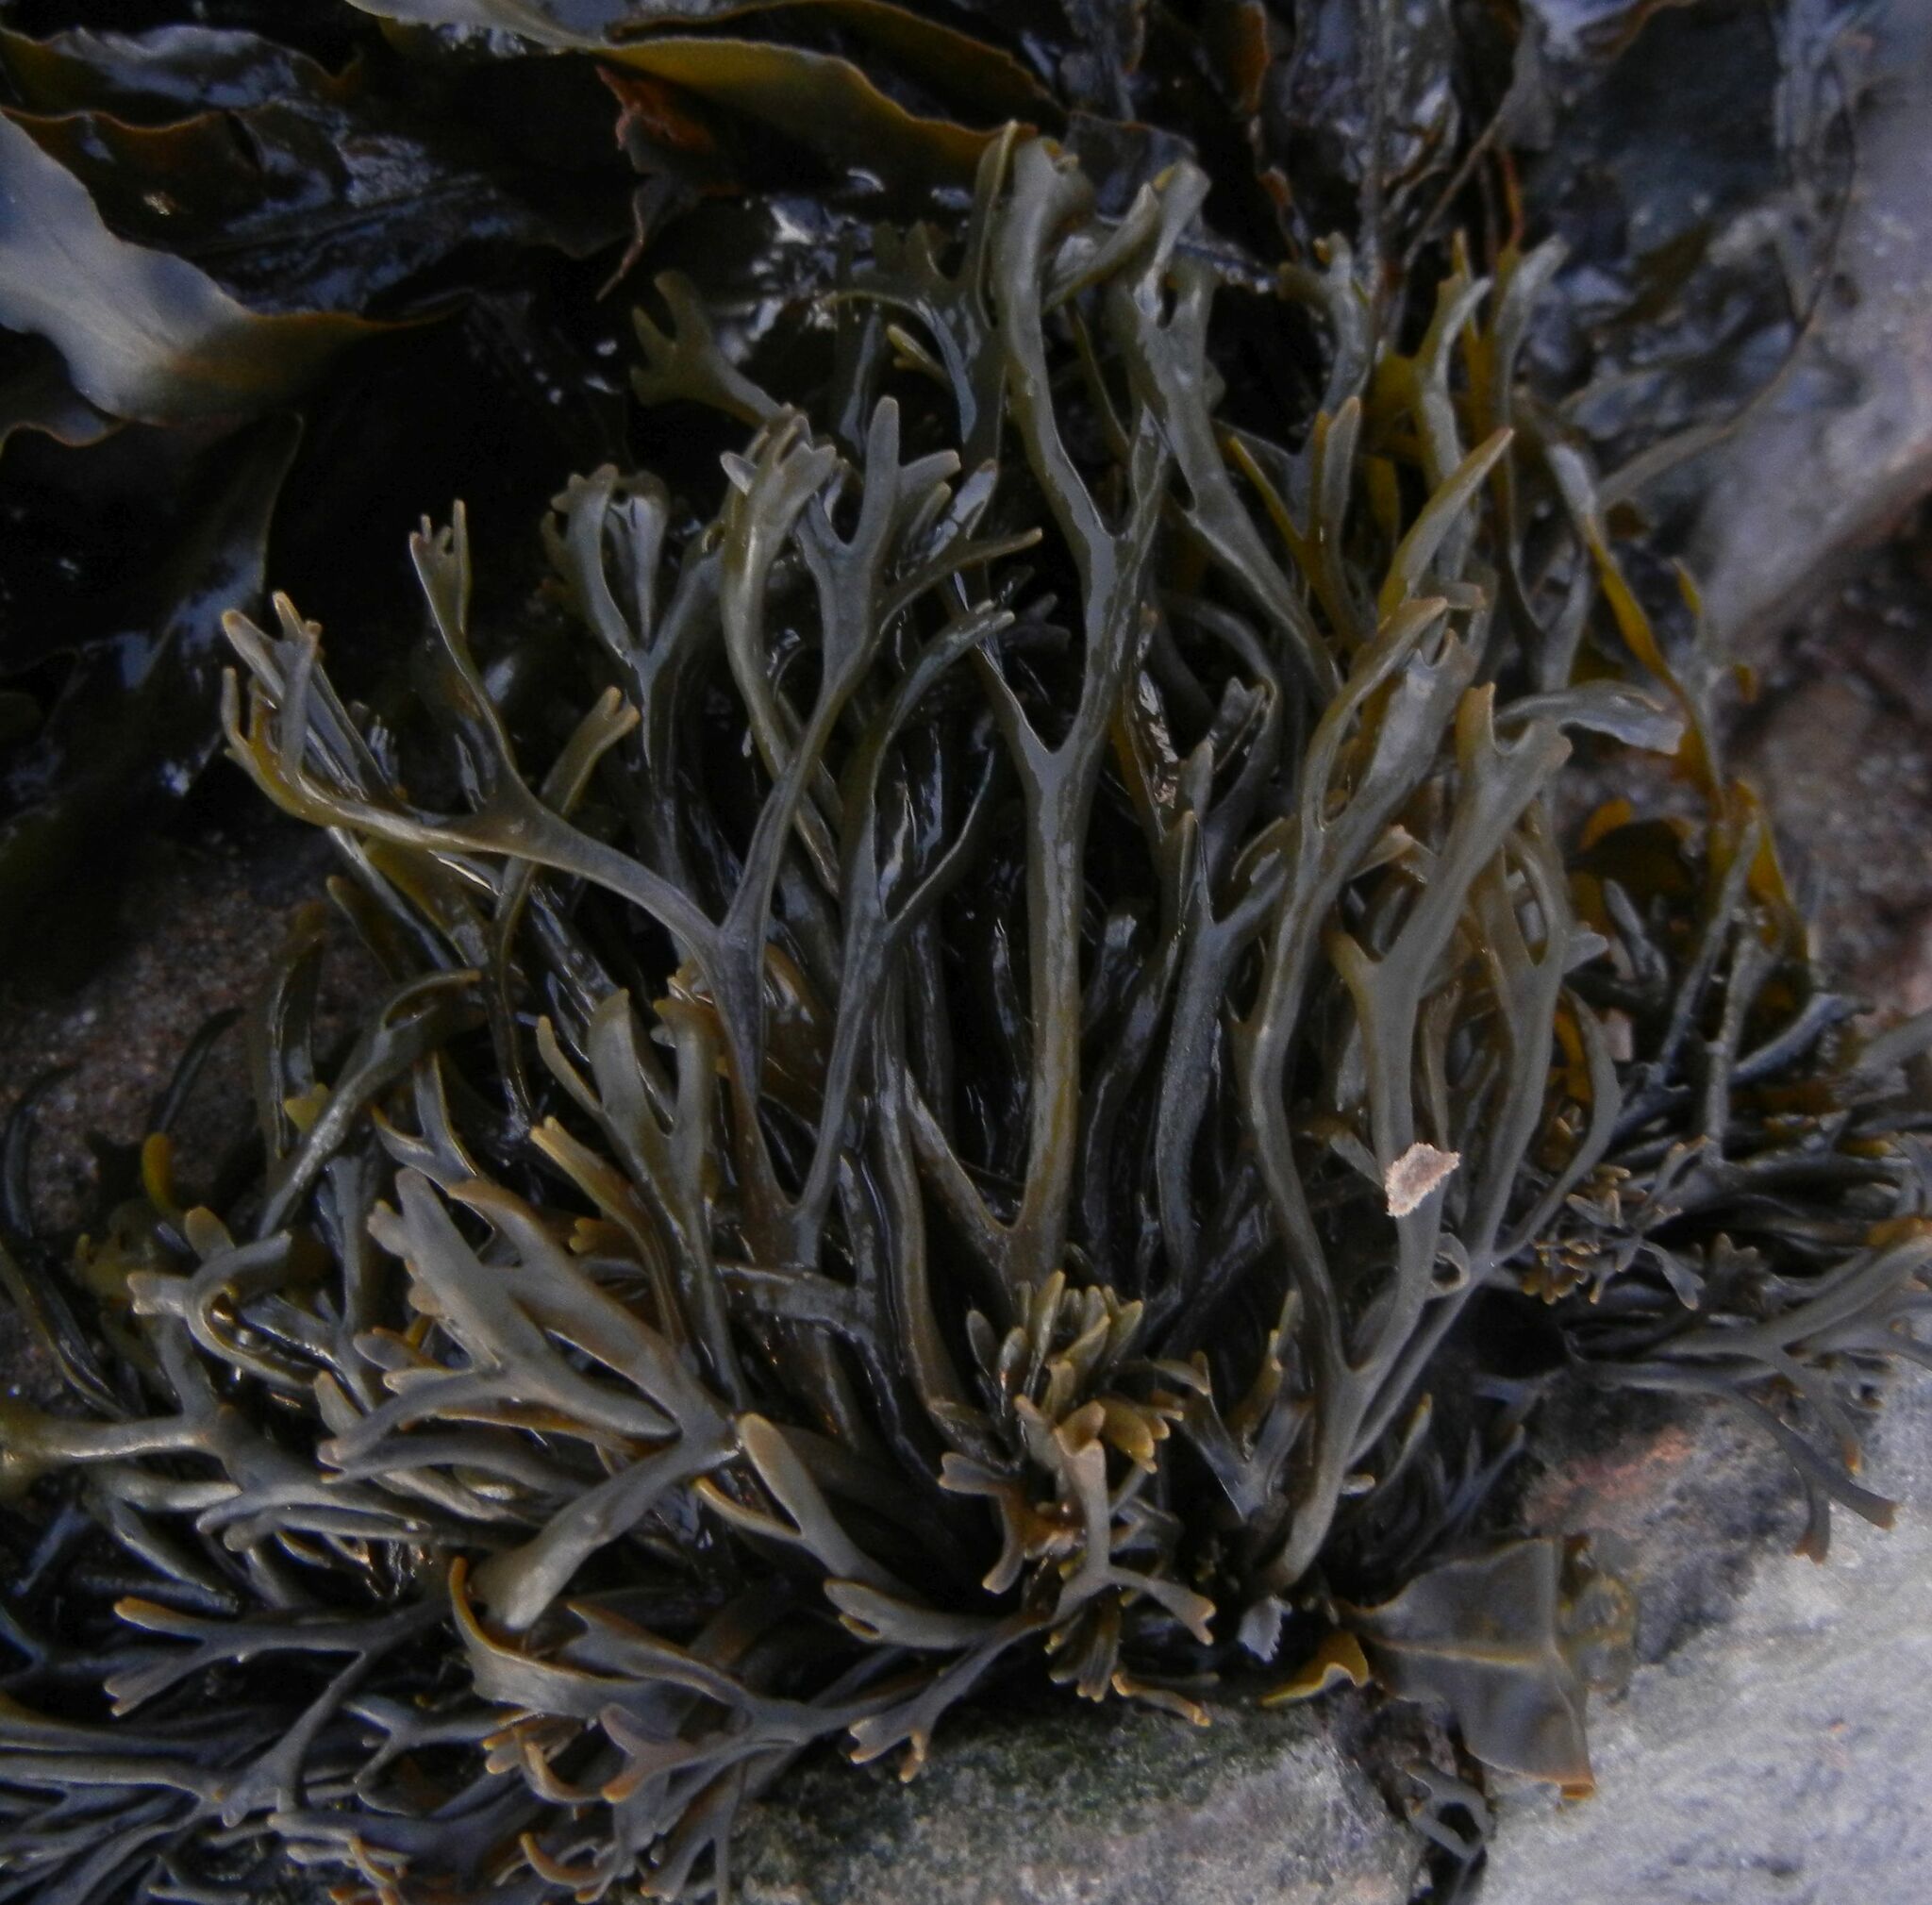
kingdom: Chromista
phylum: Ochrophyta
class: Phaeophyceae
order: Fucales
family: Fucaceae
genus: Pelvetia
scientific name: Pelvetia canaliculata
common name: Channelled wrack
